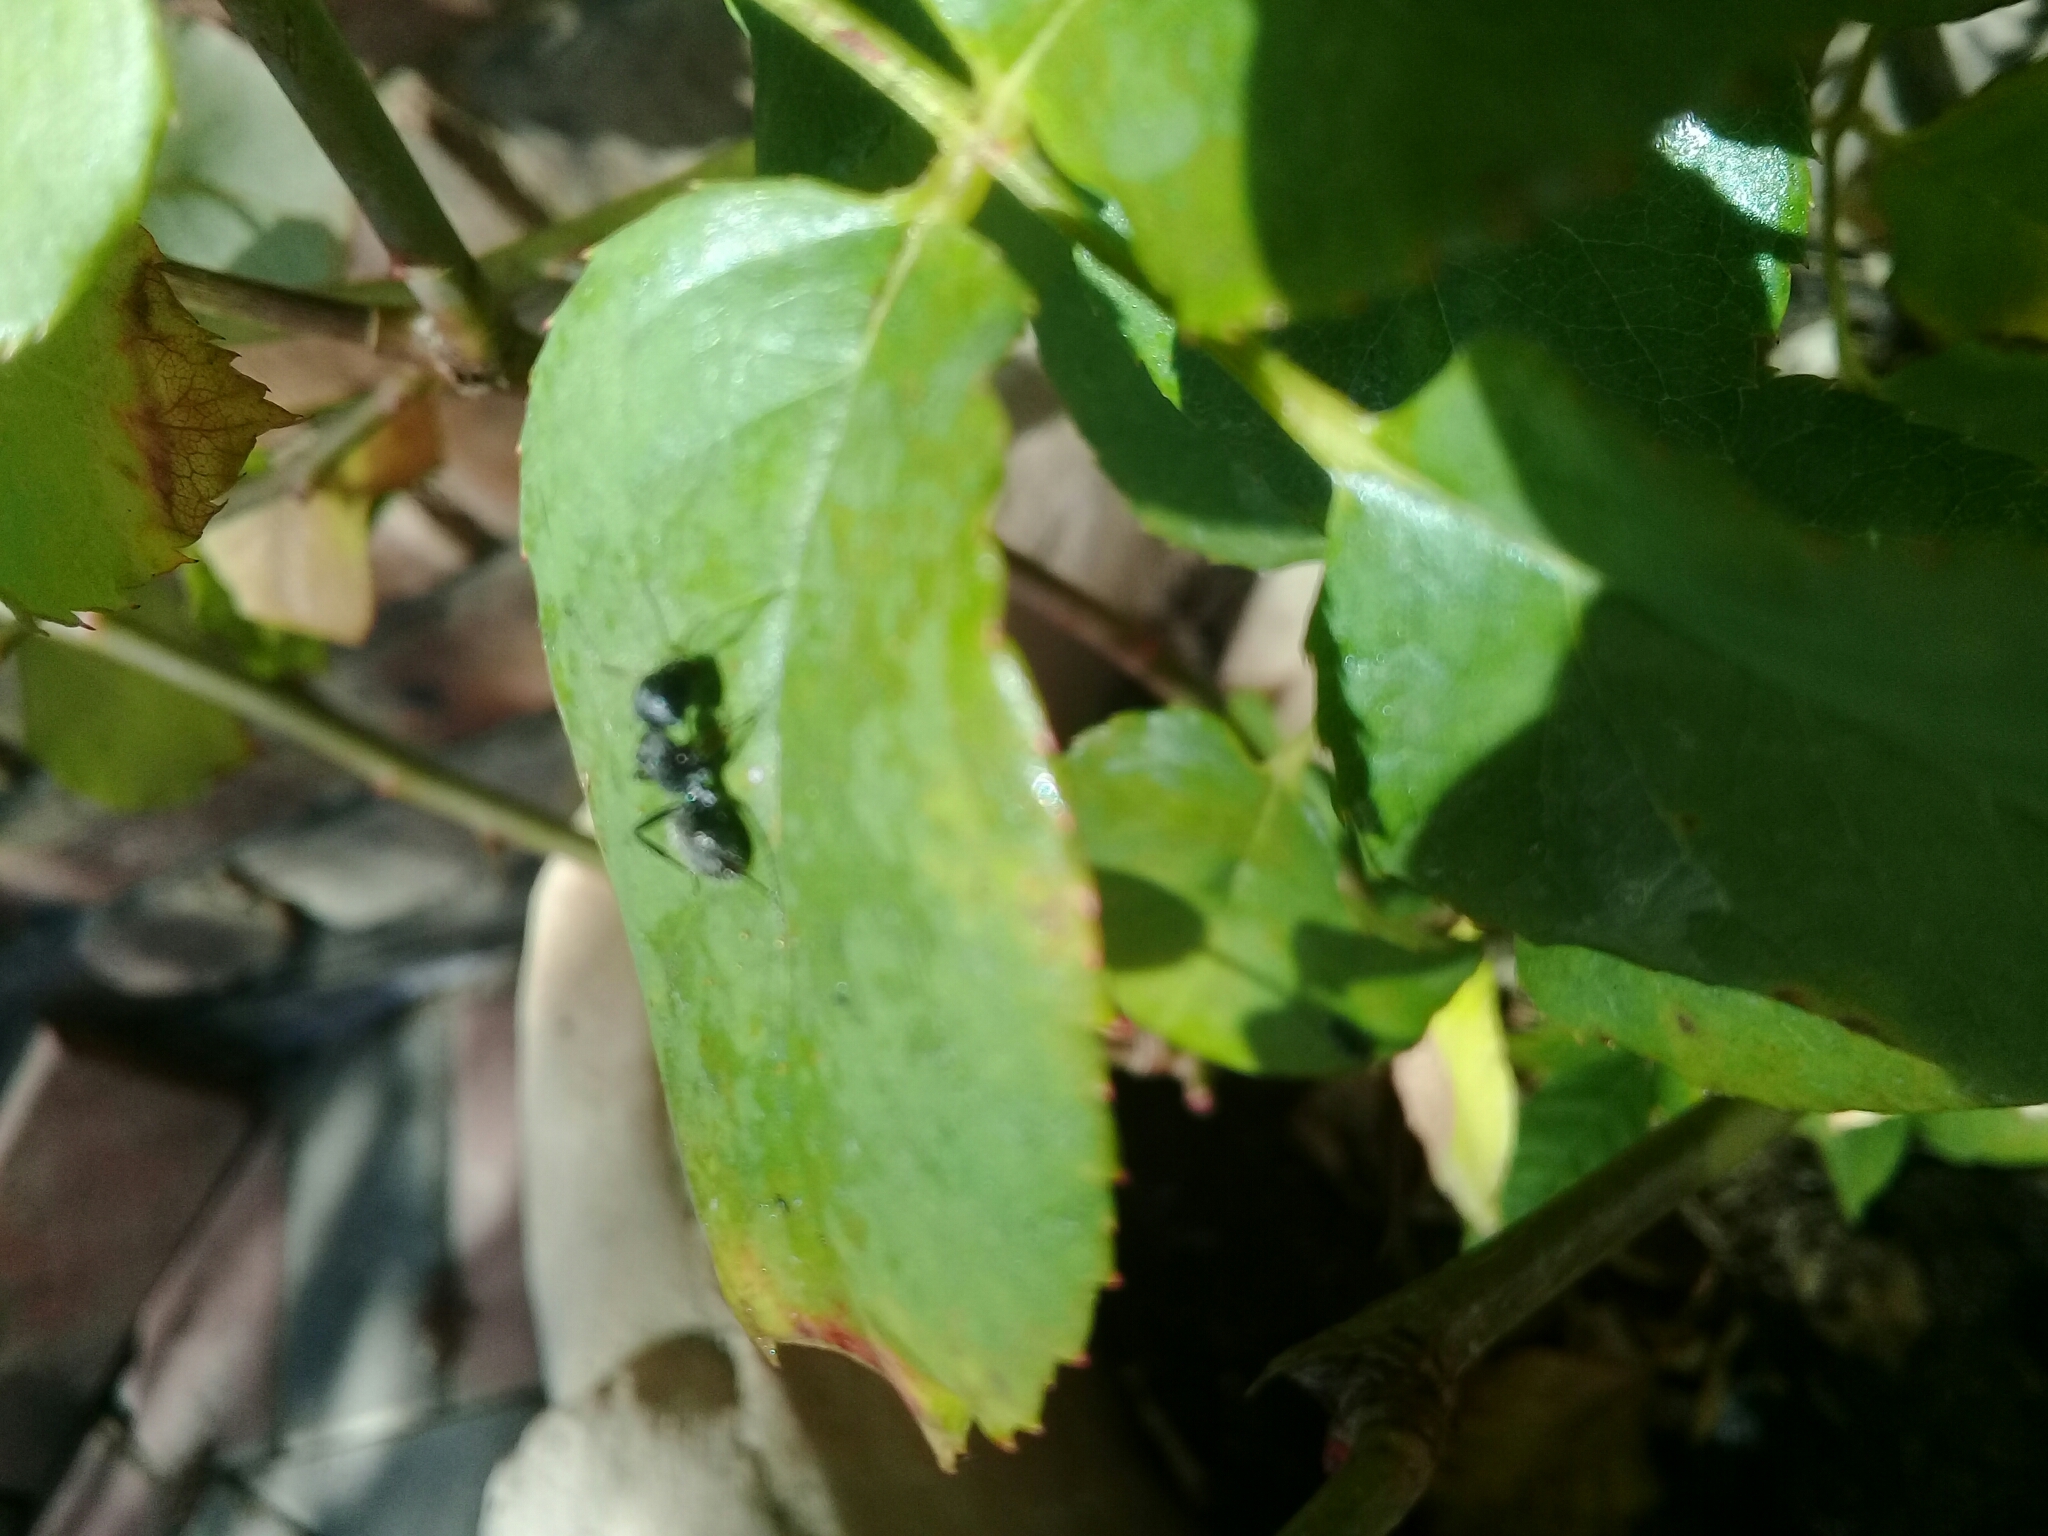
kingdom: Animalia
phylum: Arthropoda
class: Insecta
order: Hymenoptera
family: Formicidae
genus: Camponotus
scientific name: Camponotus niveosetosus
